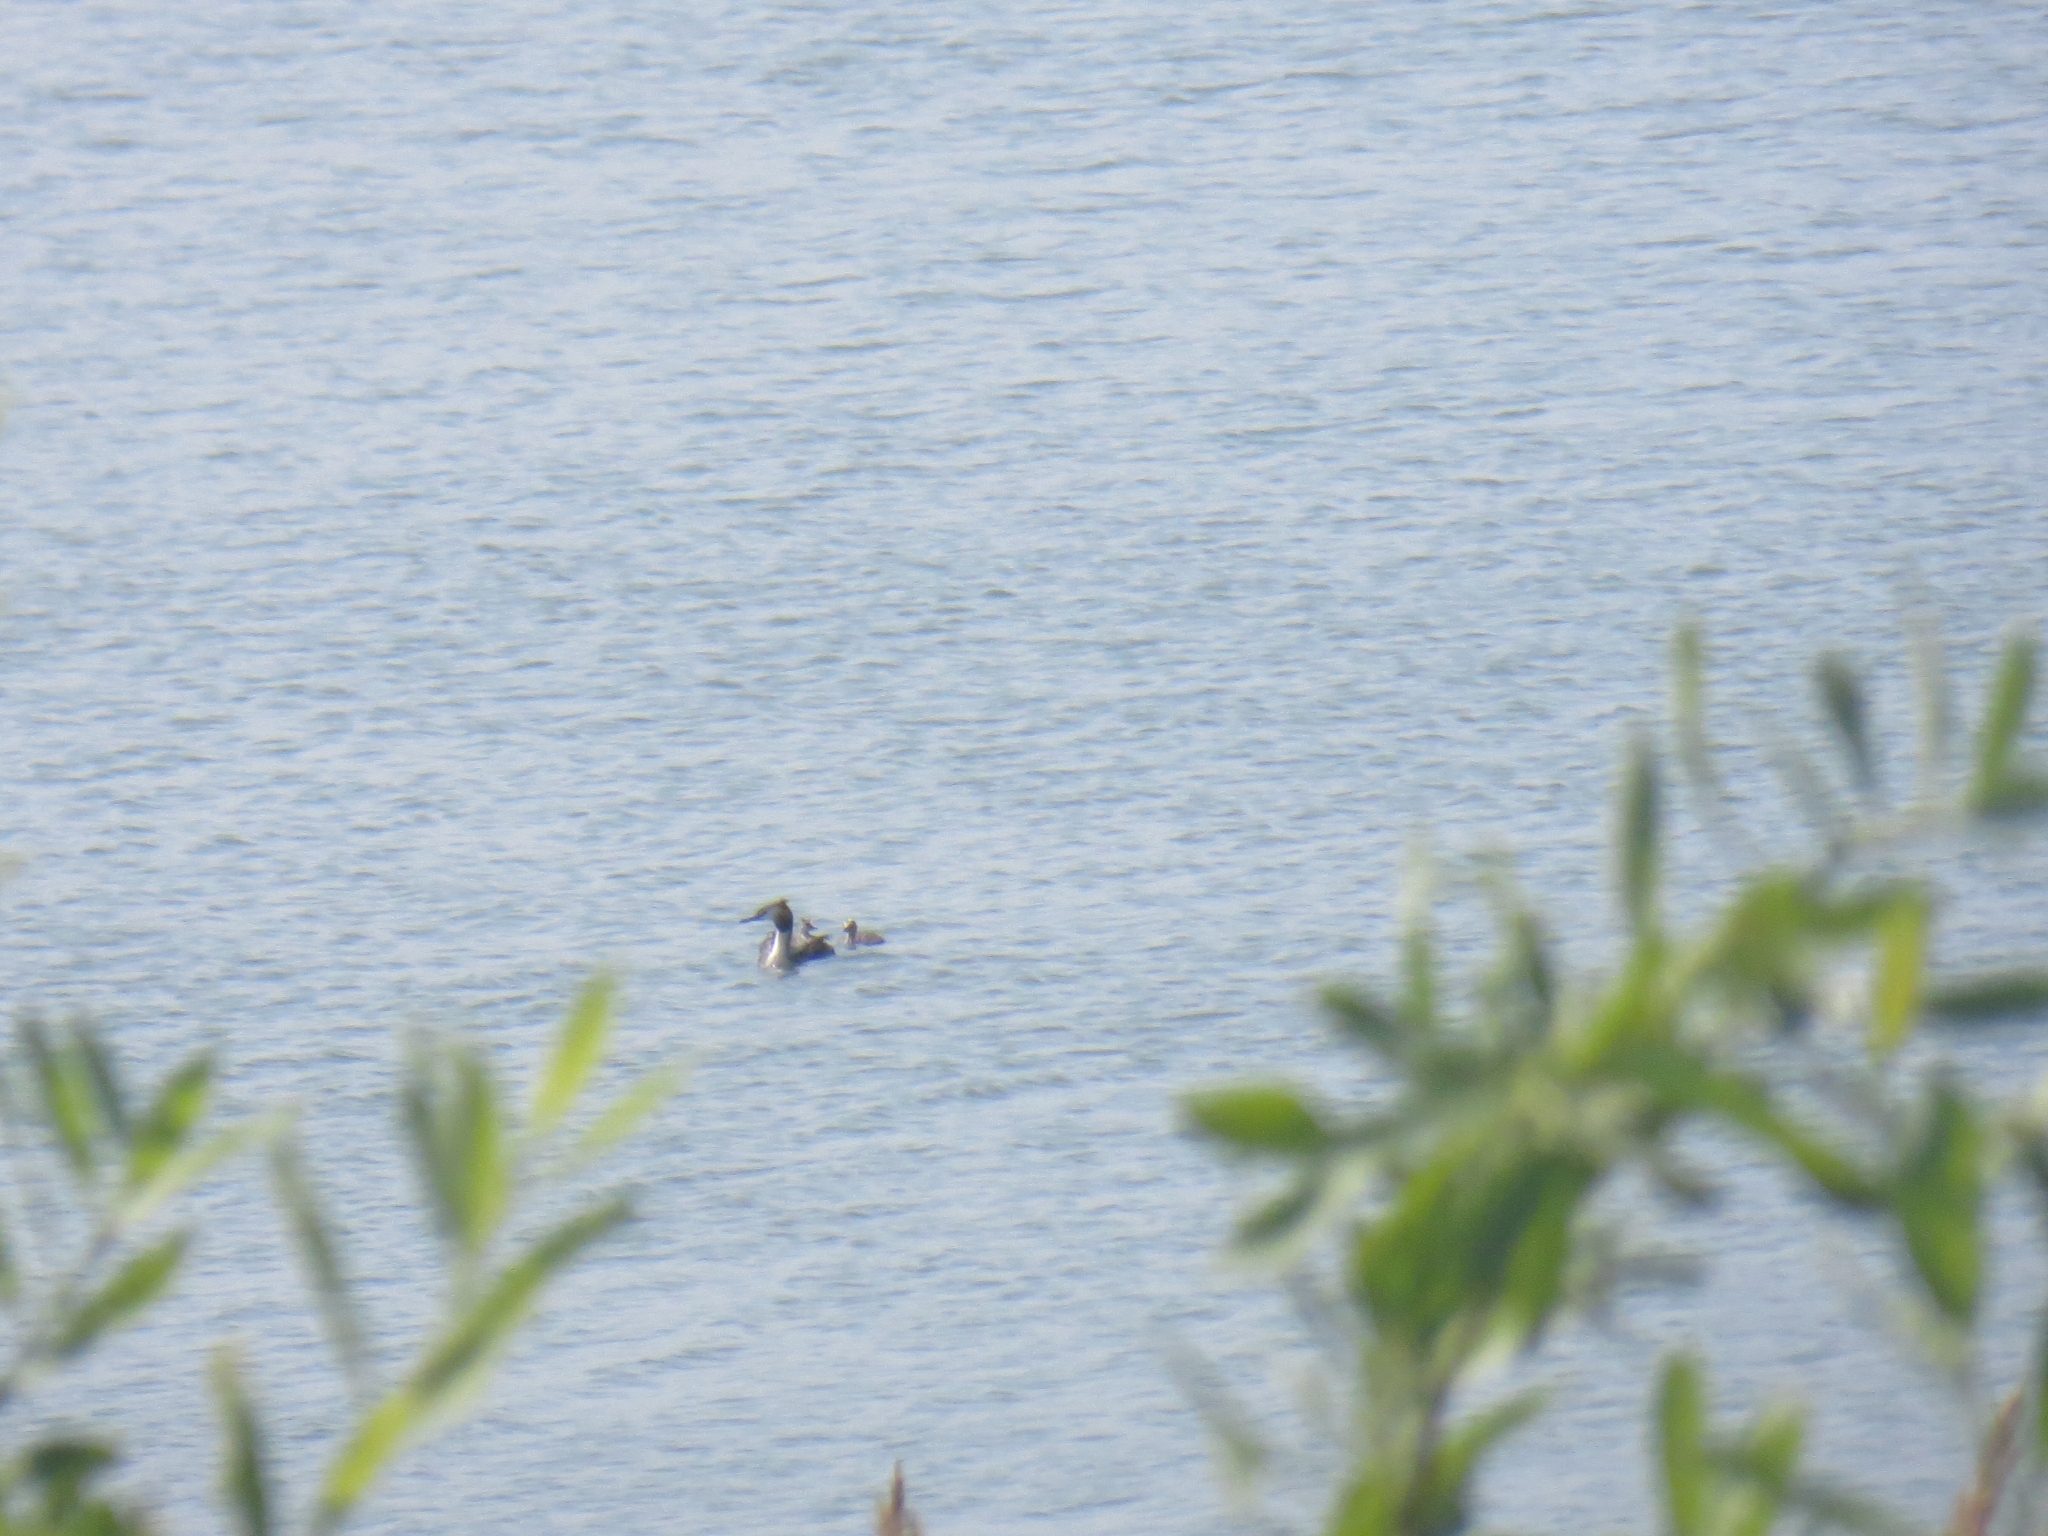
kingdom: Animalia
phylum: Chordata
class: Aves
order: Podicipediformes
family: Podicipedidae
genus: Podiceps
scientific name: Podiceps cristatus
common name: Great crested grebe
